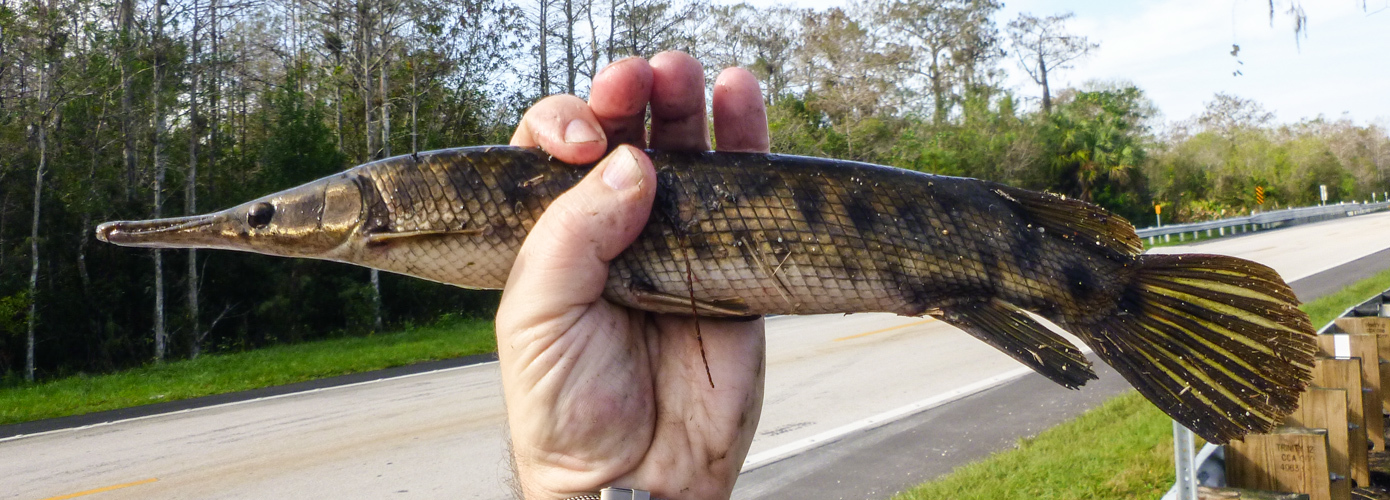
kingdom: Animalia
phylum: Chordata
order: Lepisosteiformes
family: Lepisosteidae
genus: Lepisosteus
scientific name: Lepisosteus platyrhincus
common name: Florida gar
